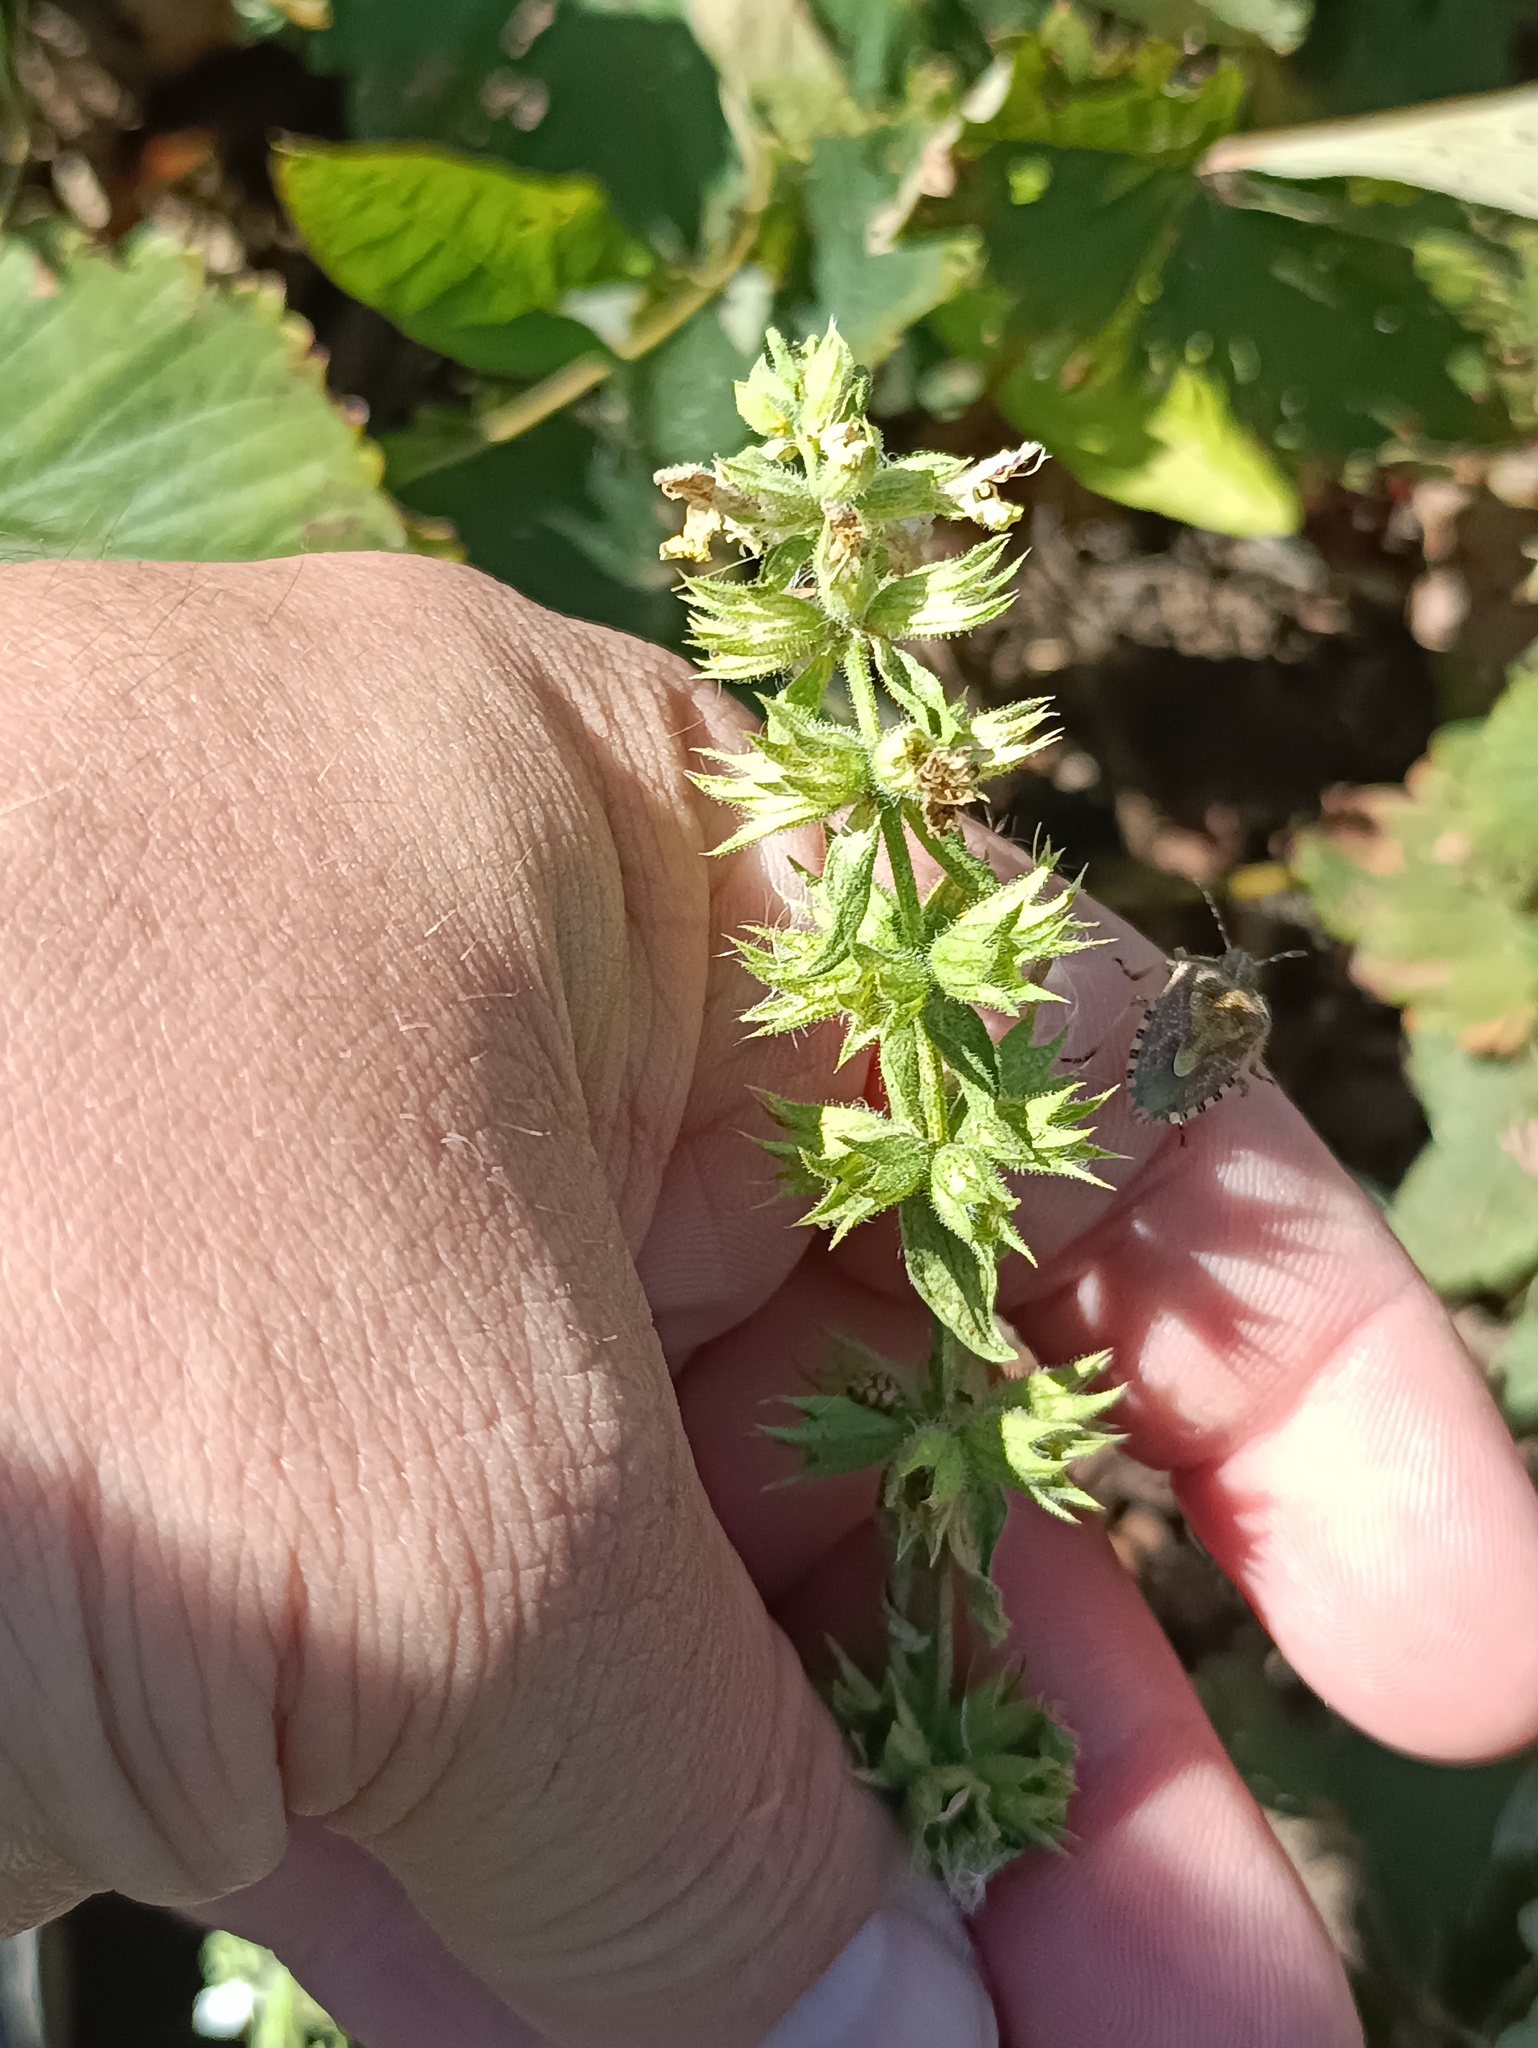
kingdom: Plantae
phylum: Tracheophyta
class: Magnoliopsida
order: Lamiales
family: Lamiaceae
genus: Stachys
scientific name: Stachys annua
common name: Annual yellow-woundwort
